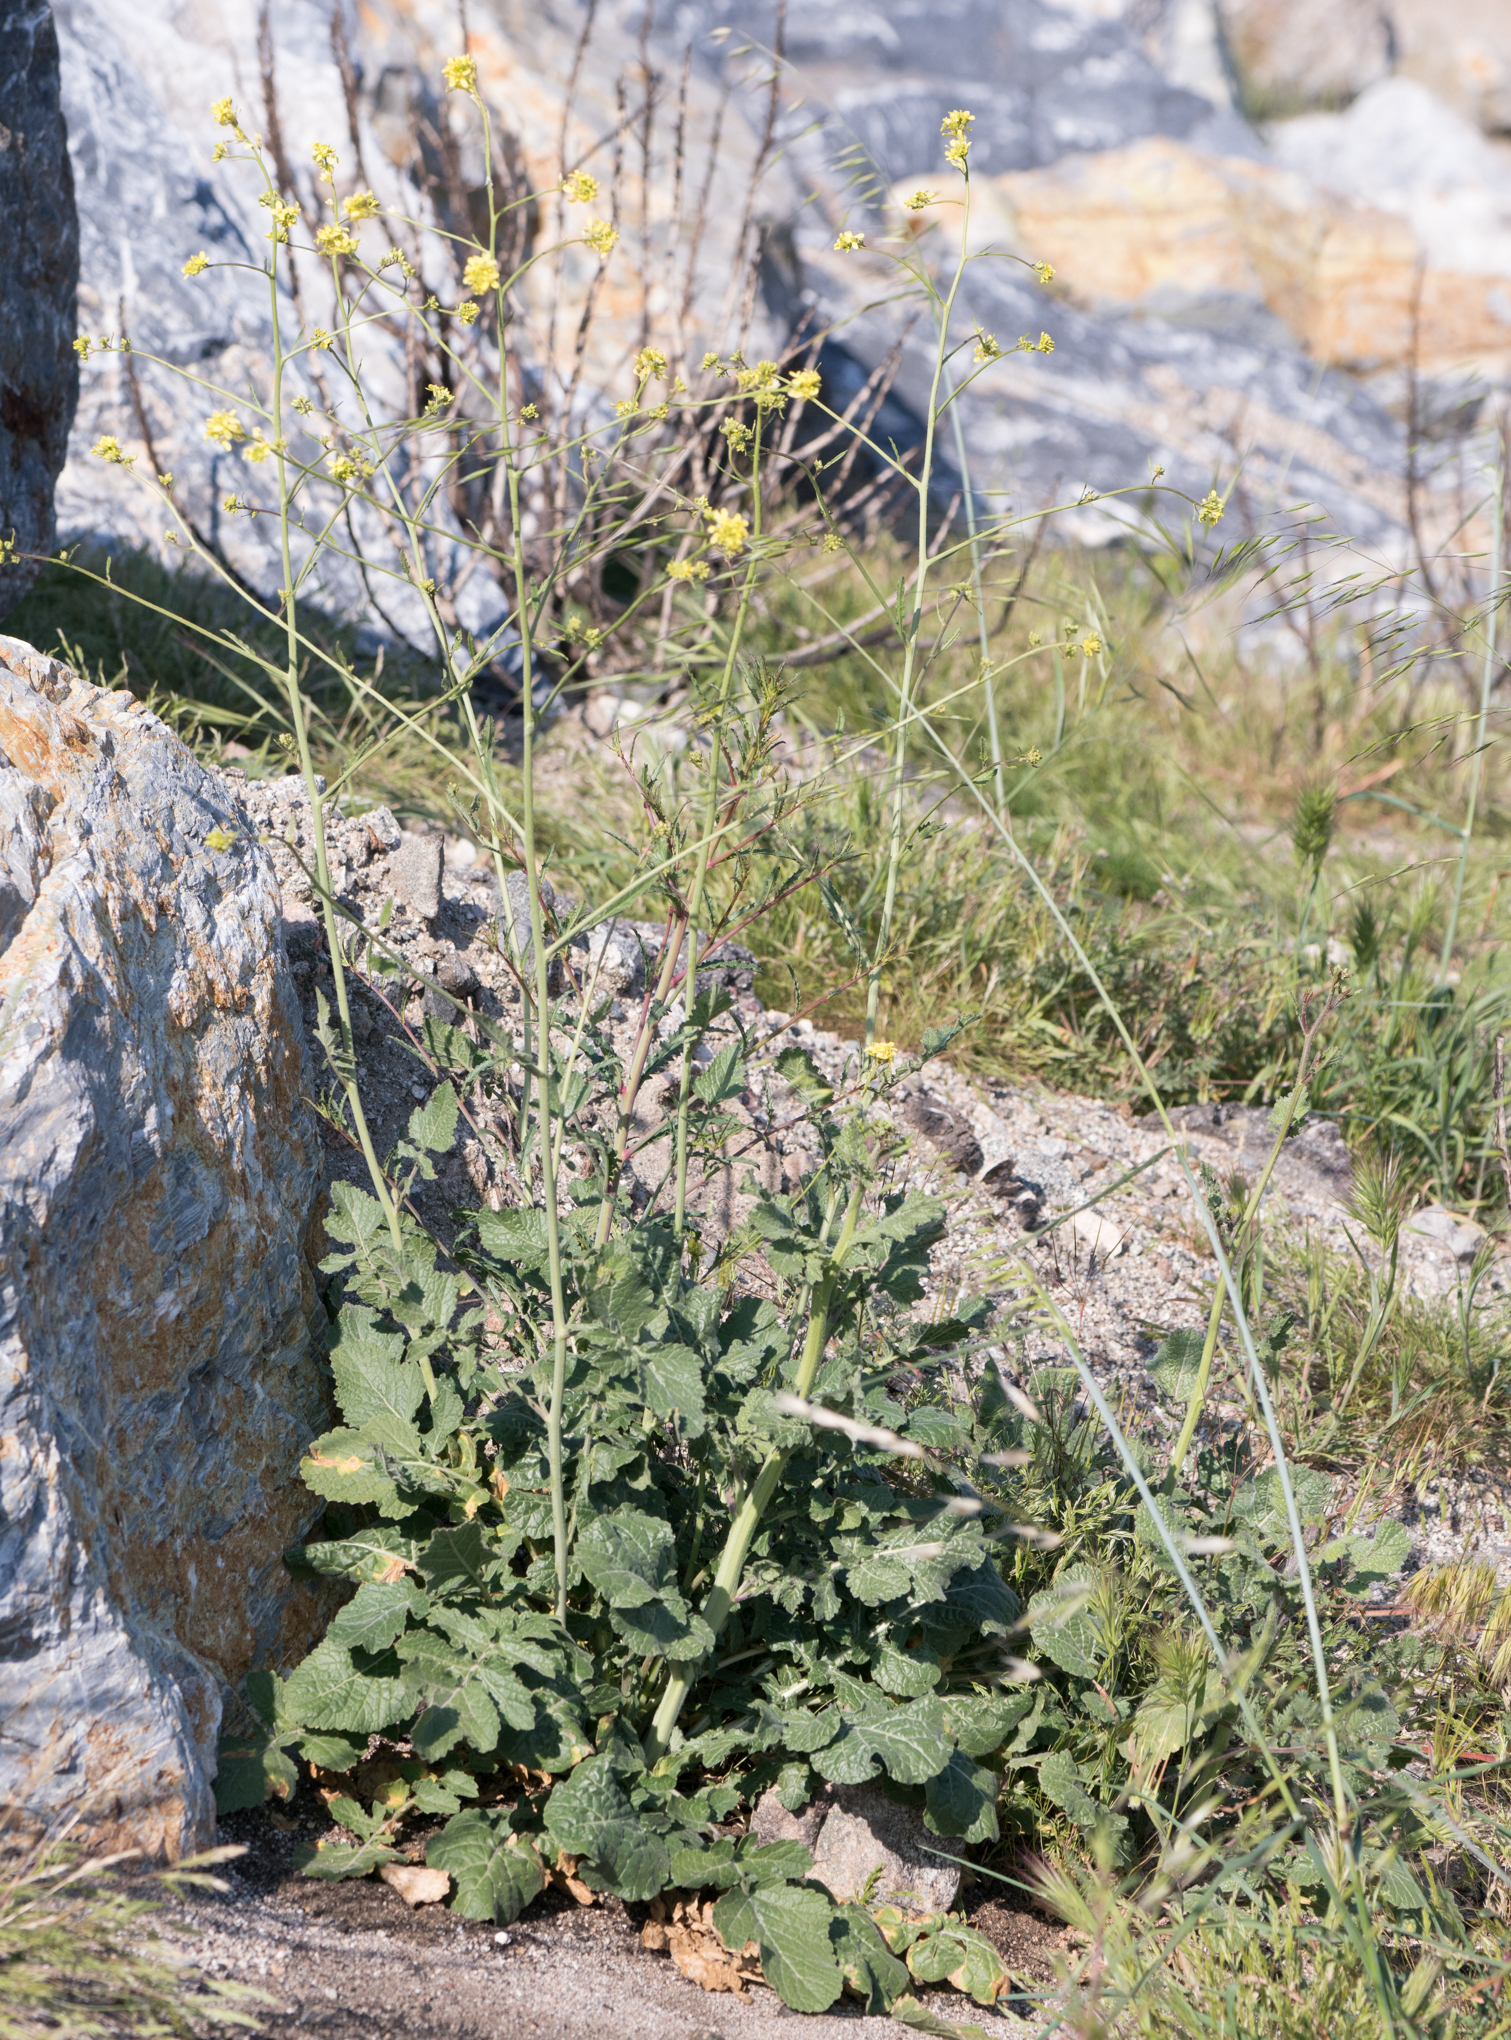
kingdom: Plantae
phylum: Tracheophyta
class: Magnoliopsida
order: Brassicales
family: Brassicaceae
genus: Hirschfeldia
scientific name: Hirschfeldia incana
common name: Hoary mustard
